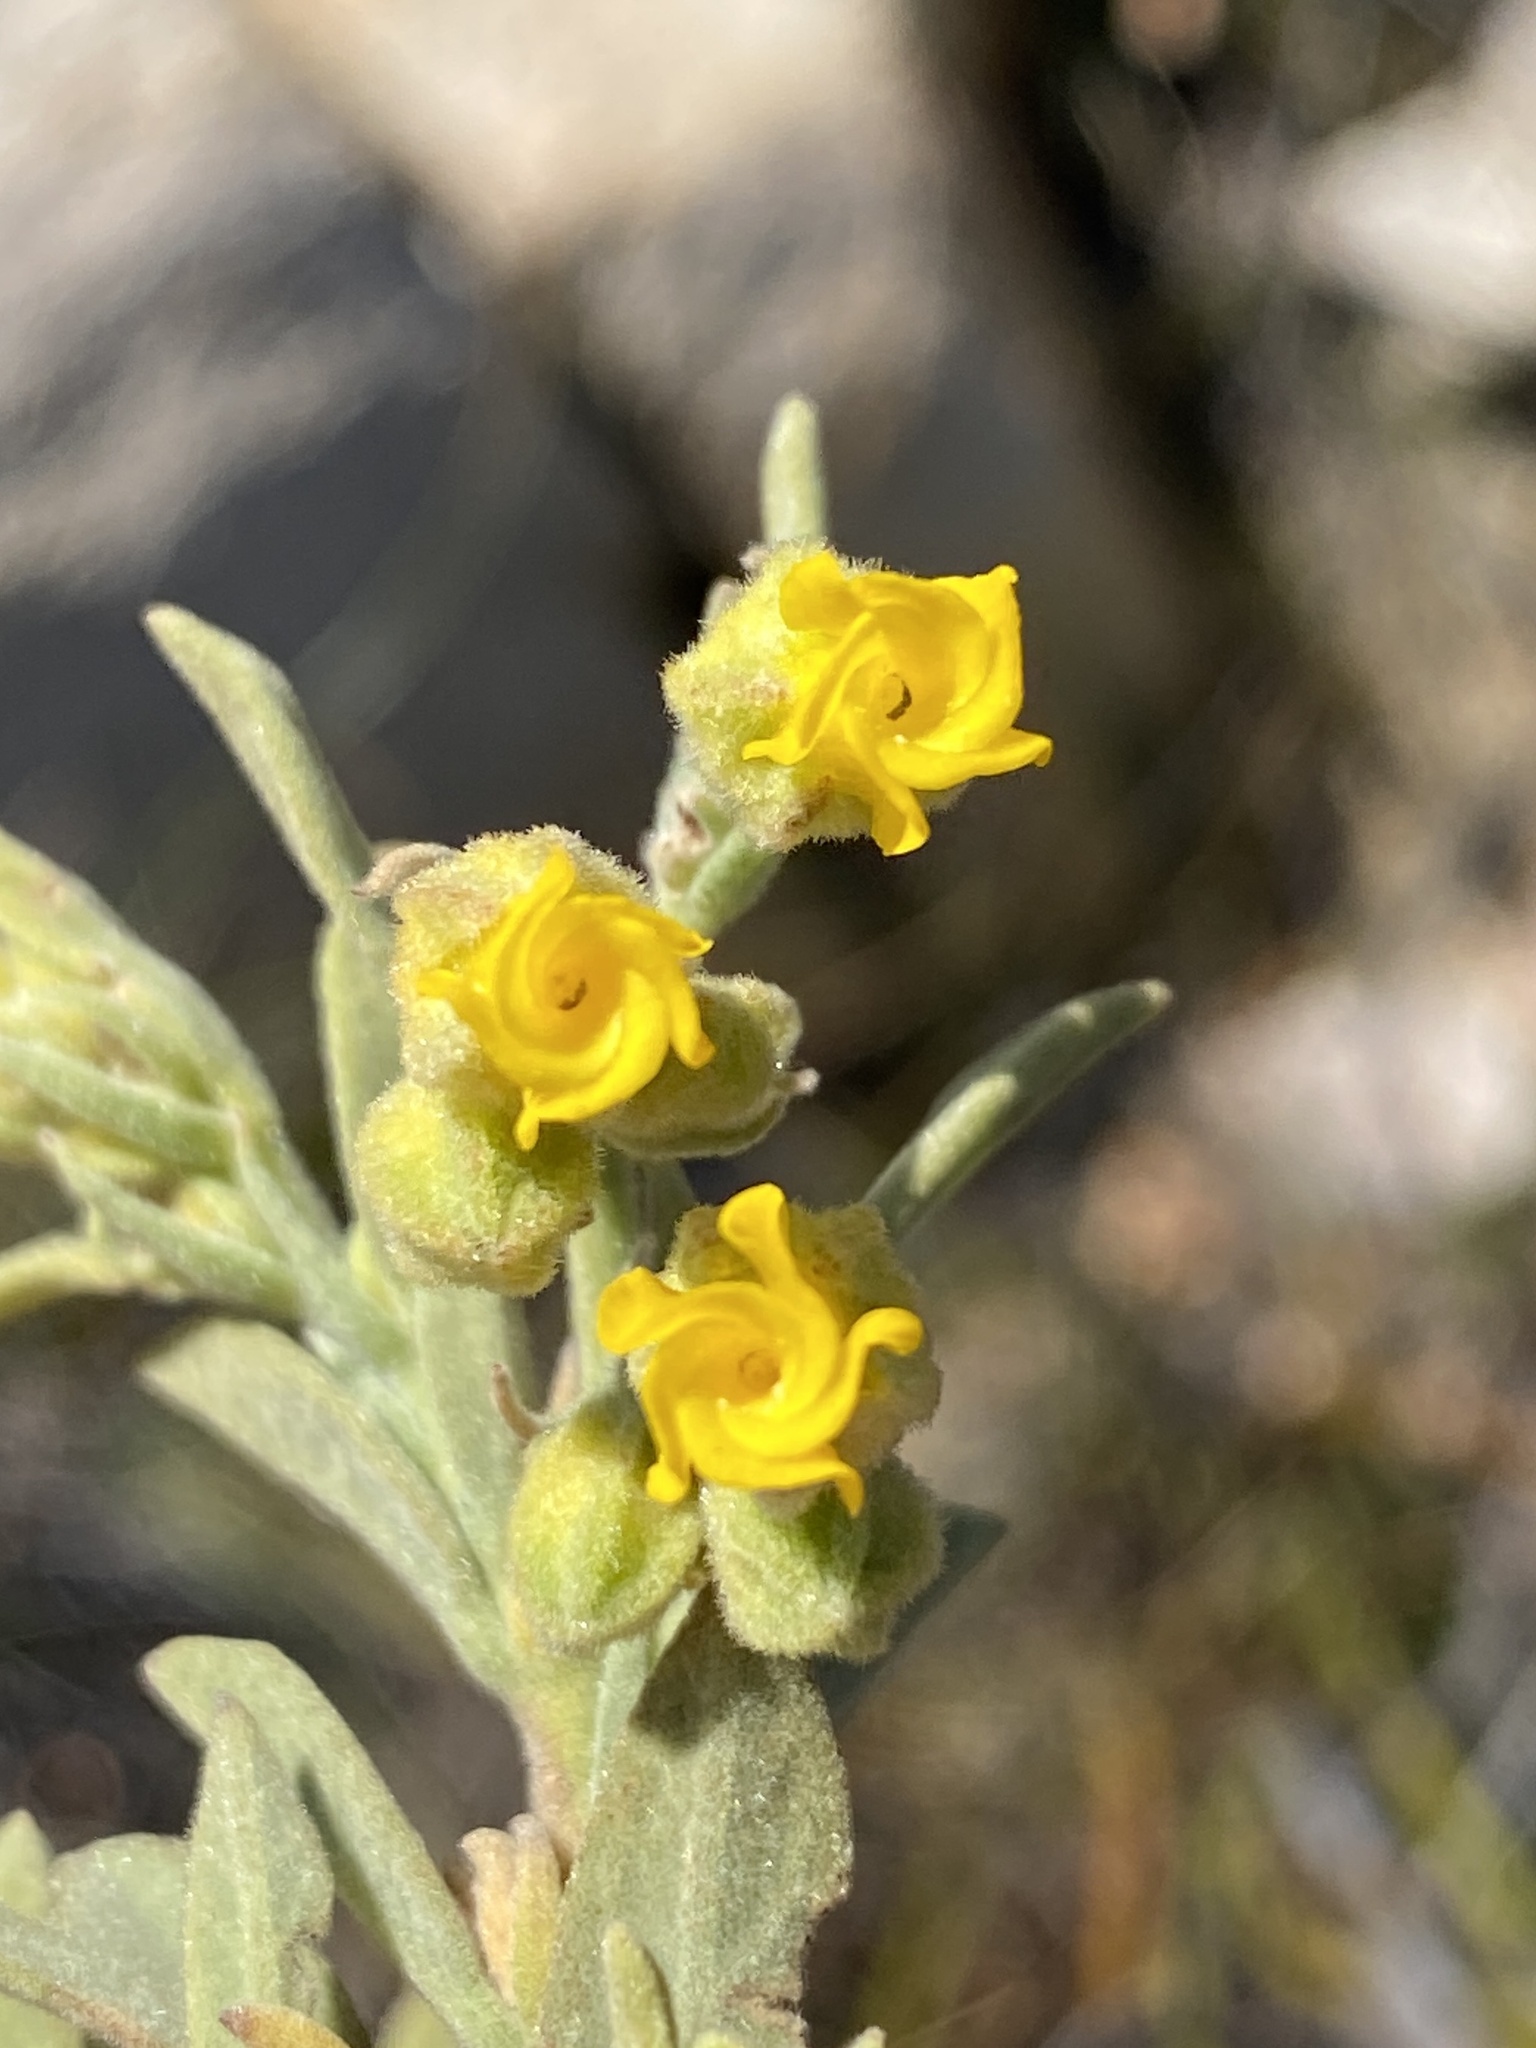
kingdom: Plantae
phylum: Tracheophyta
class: Magnoliopsida
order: Malvales
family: Malvaceae
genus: Hermannia
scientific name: Hermannia velutina
